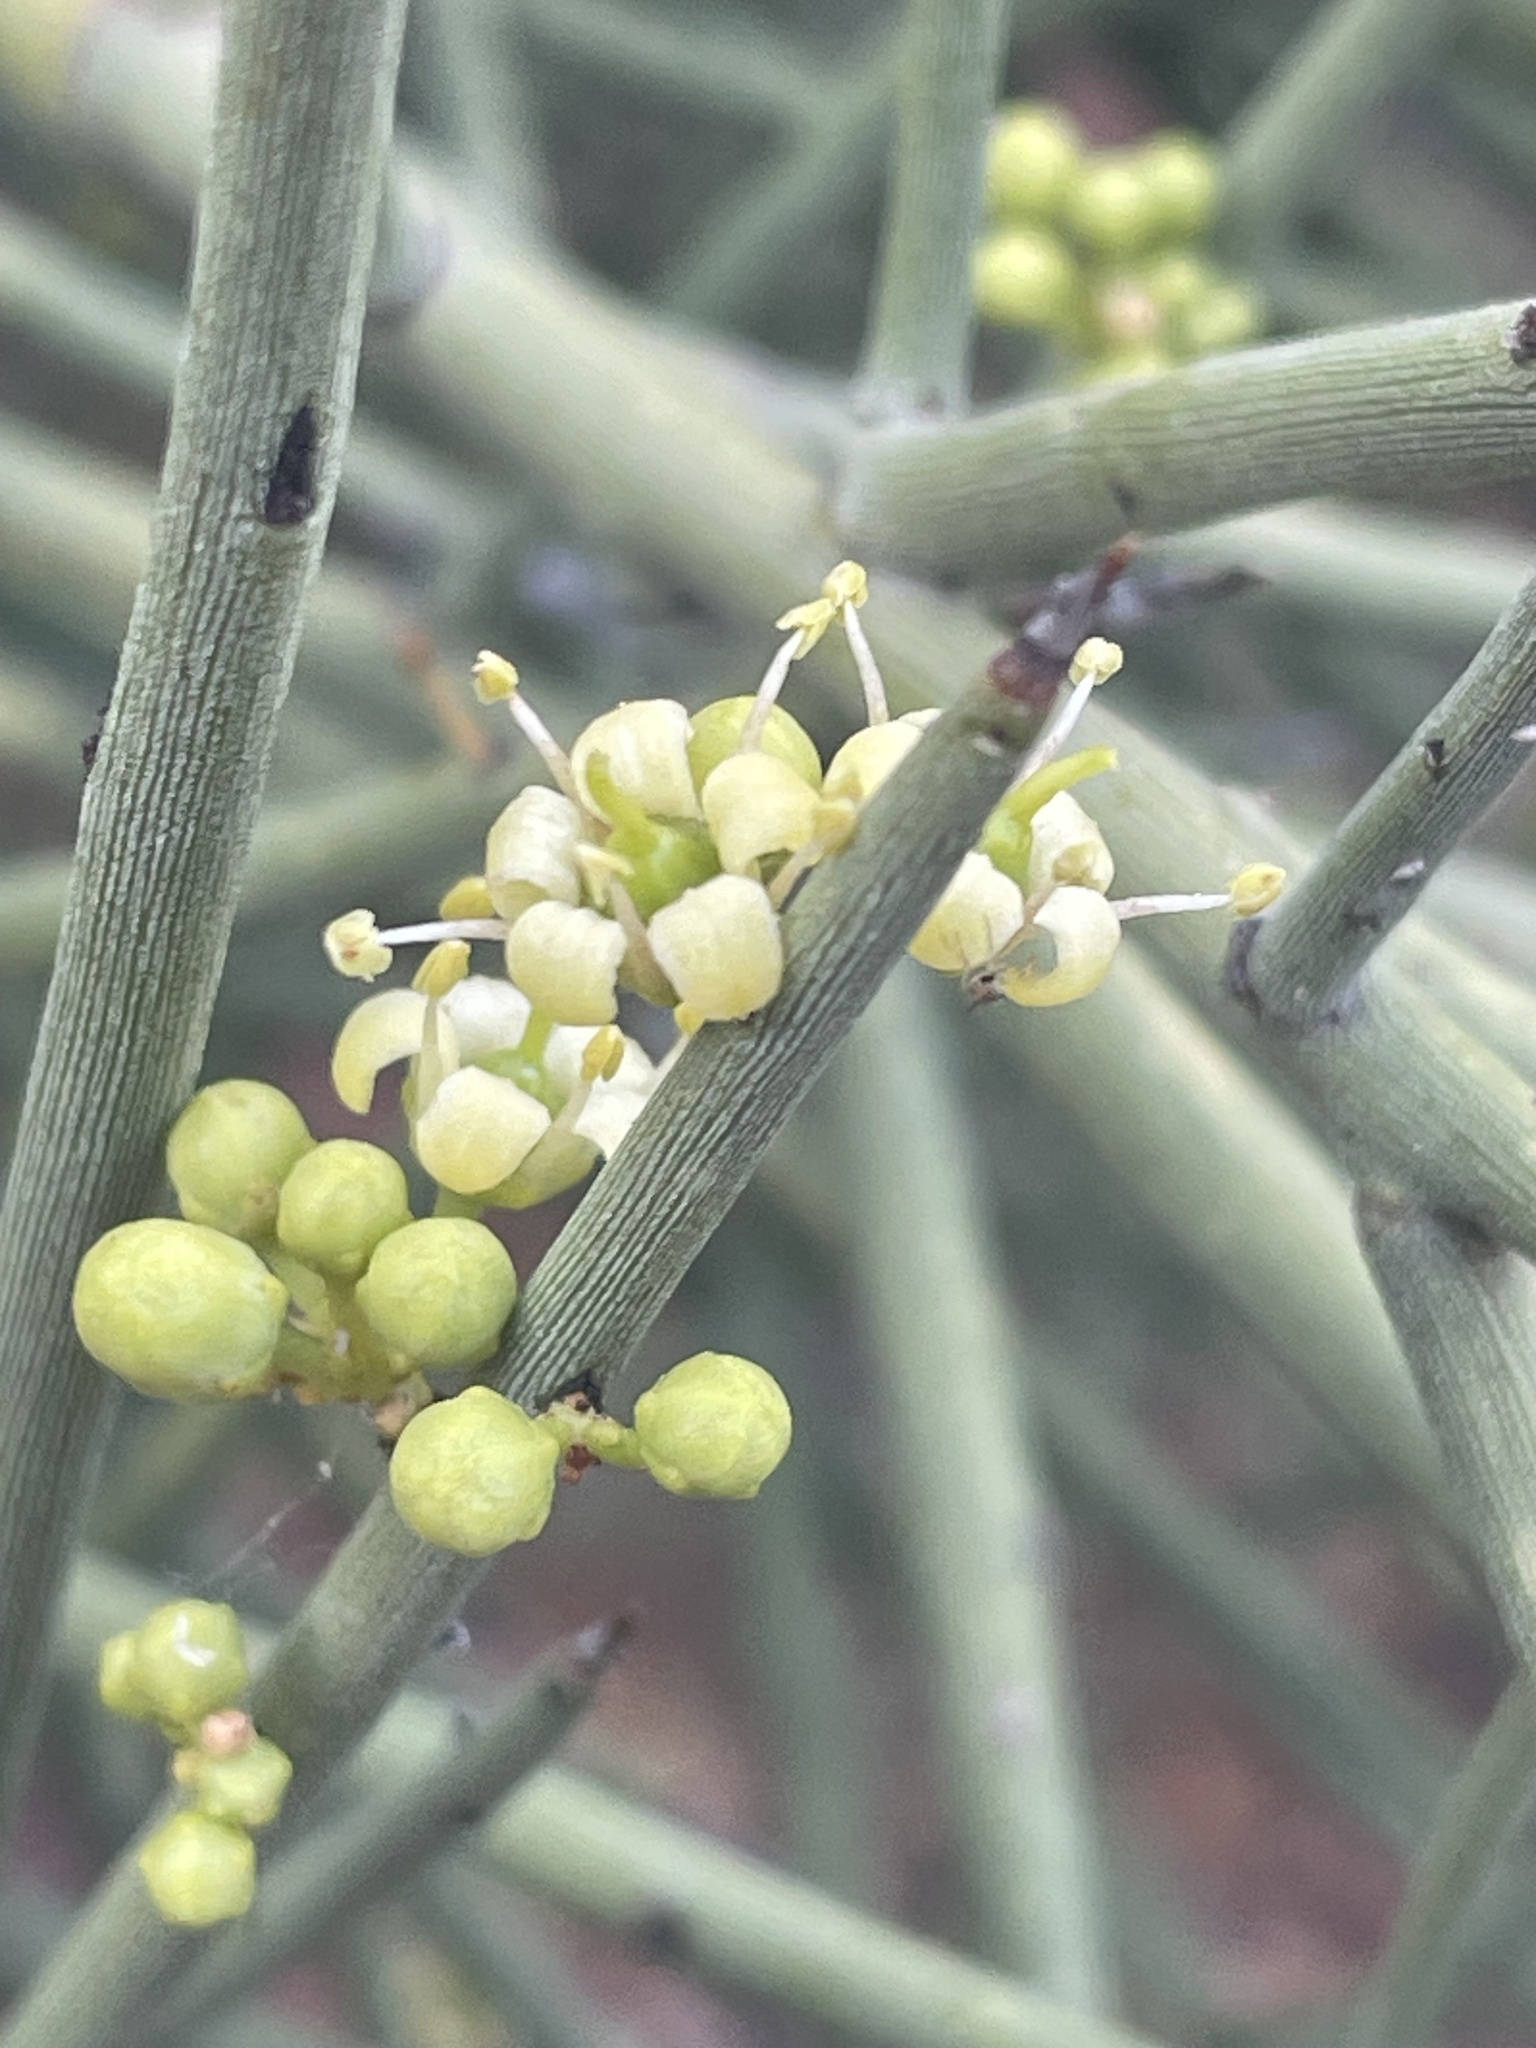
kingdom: Plantae
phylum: Tracheophyta
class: Magnoliopsida
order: Celastrales
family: Celastraceae
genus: Canotia
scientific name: Canotia holacantha
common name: Crucifixion thorns
